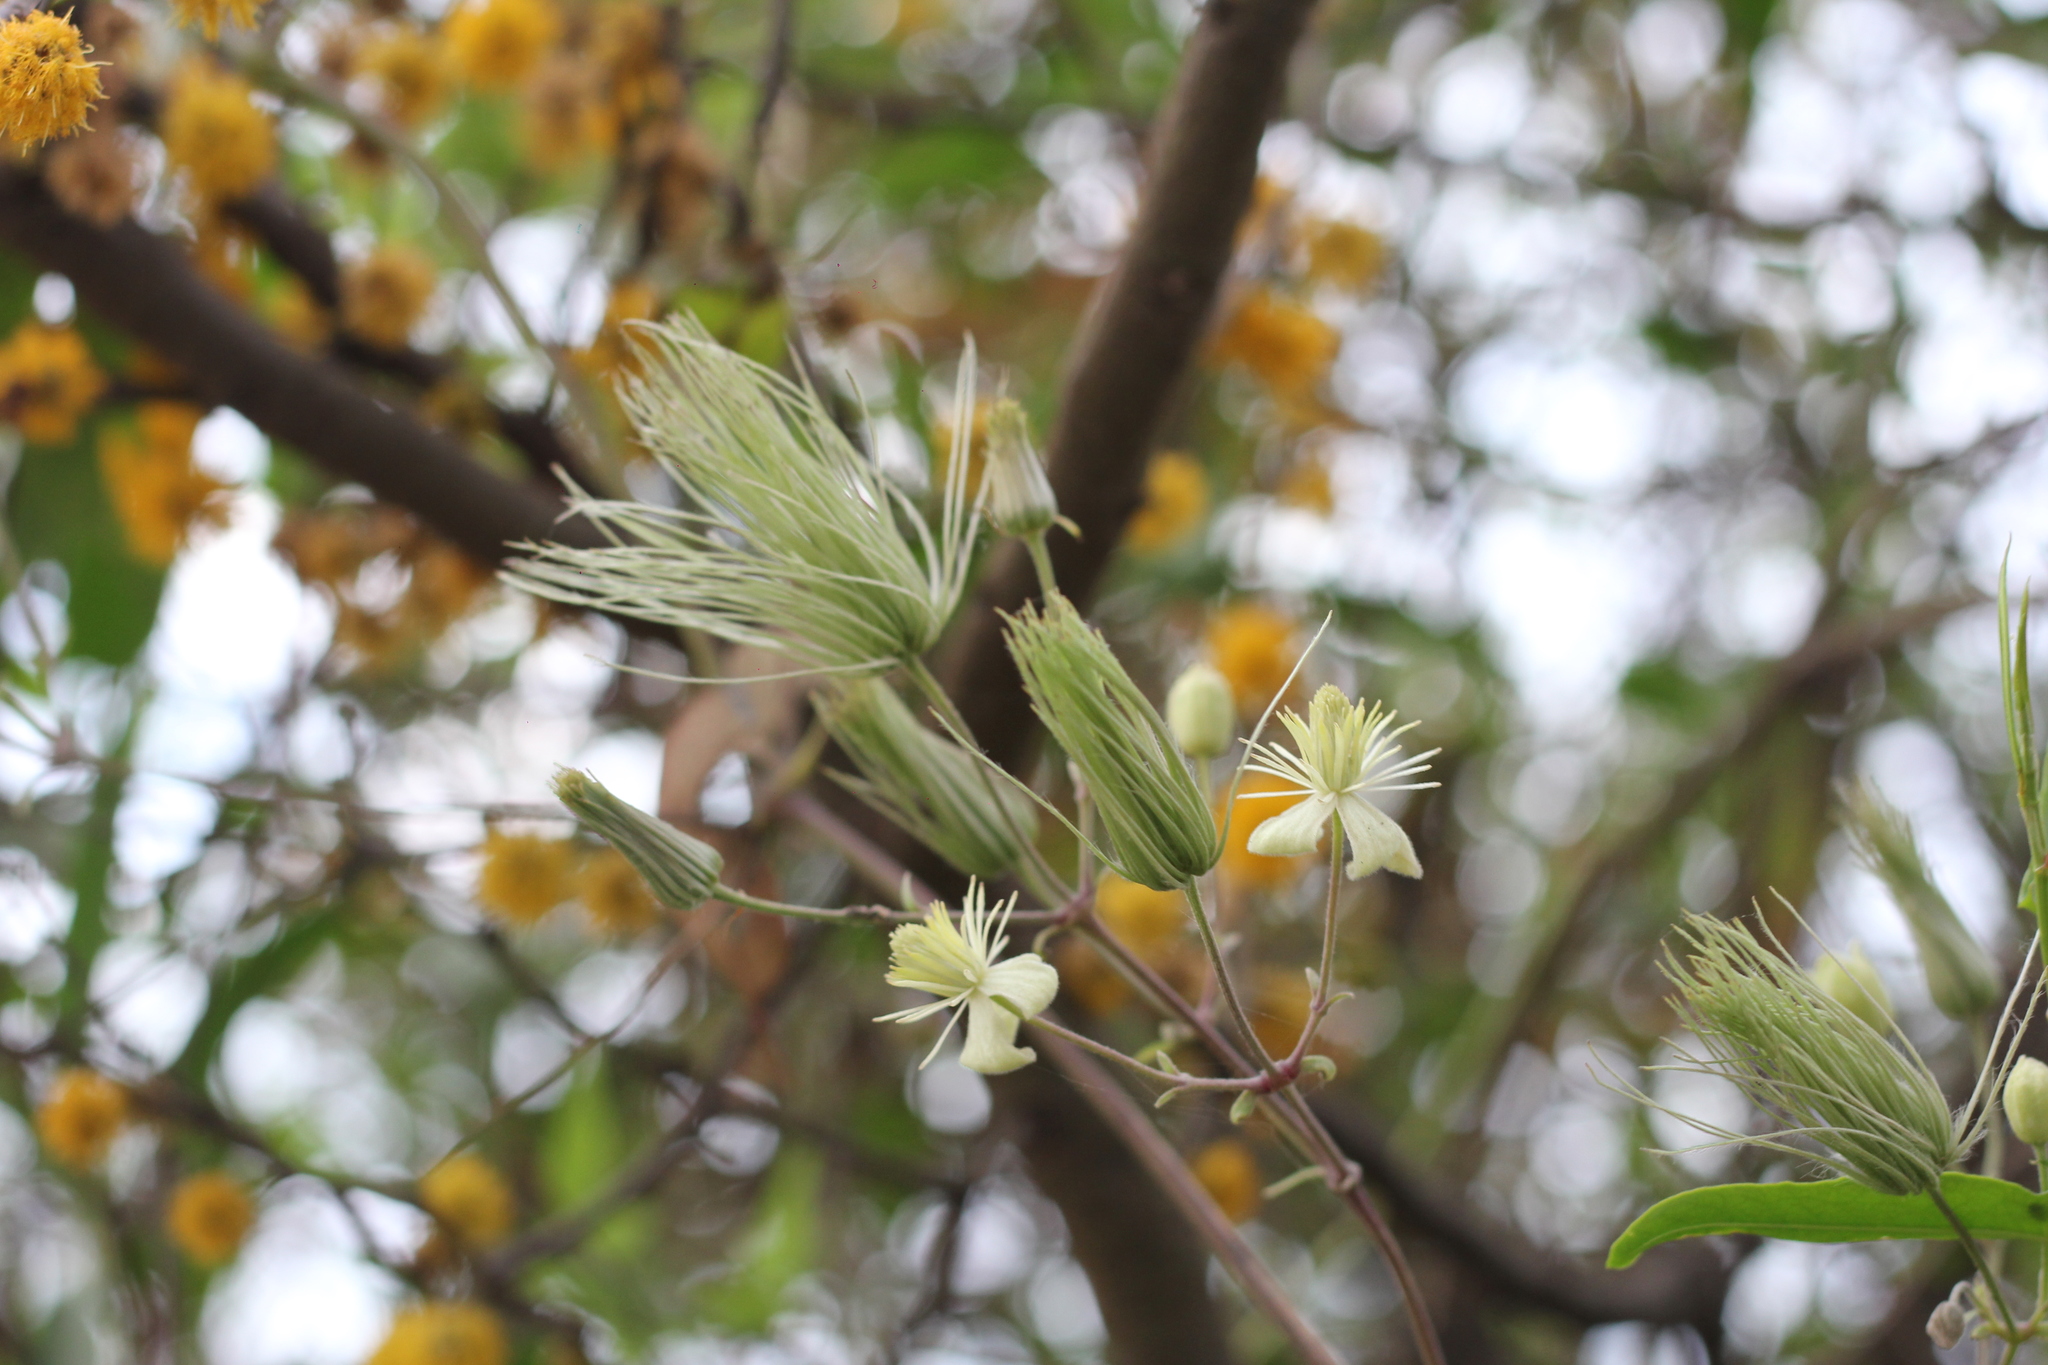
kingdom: Plantae
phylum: Tracheophyta
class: Magnoliopsida
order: Ranunculales
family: Ranunculaceae
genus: Clematis
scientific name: Clematis montevidensis
